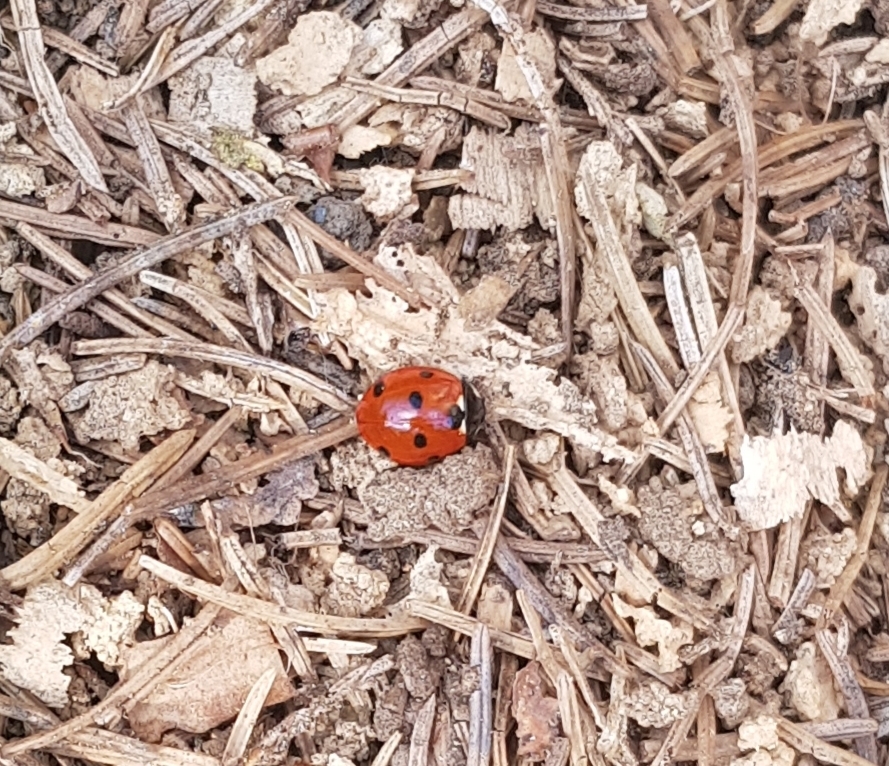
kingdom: Animalia
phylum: Arthropoda
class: Insecta
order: Coleoptera
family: Coccinellidae
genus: Coccinella
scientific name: Coccinella septempunctata
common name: Sevenspotted lady beetle
